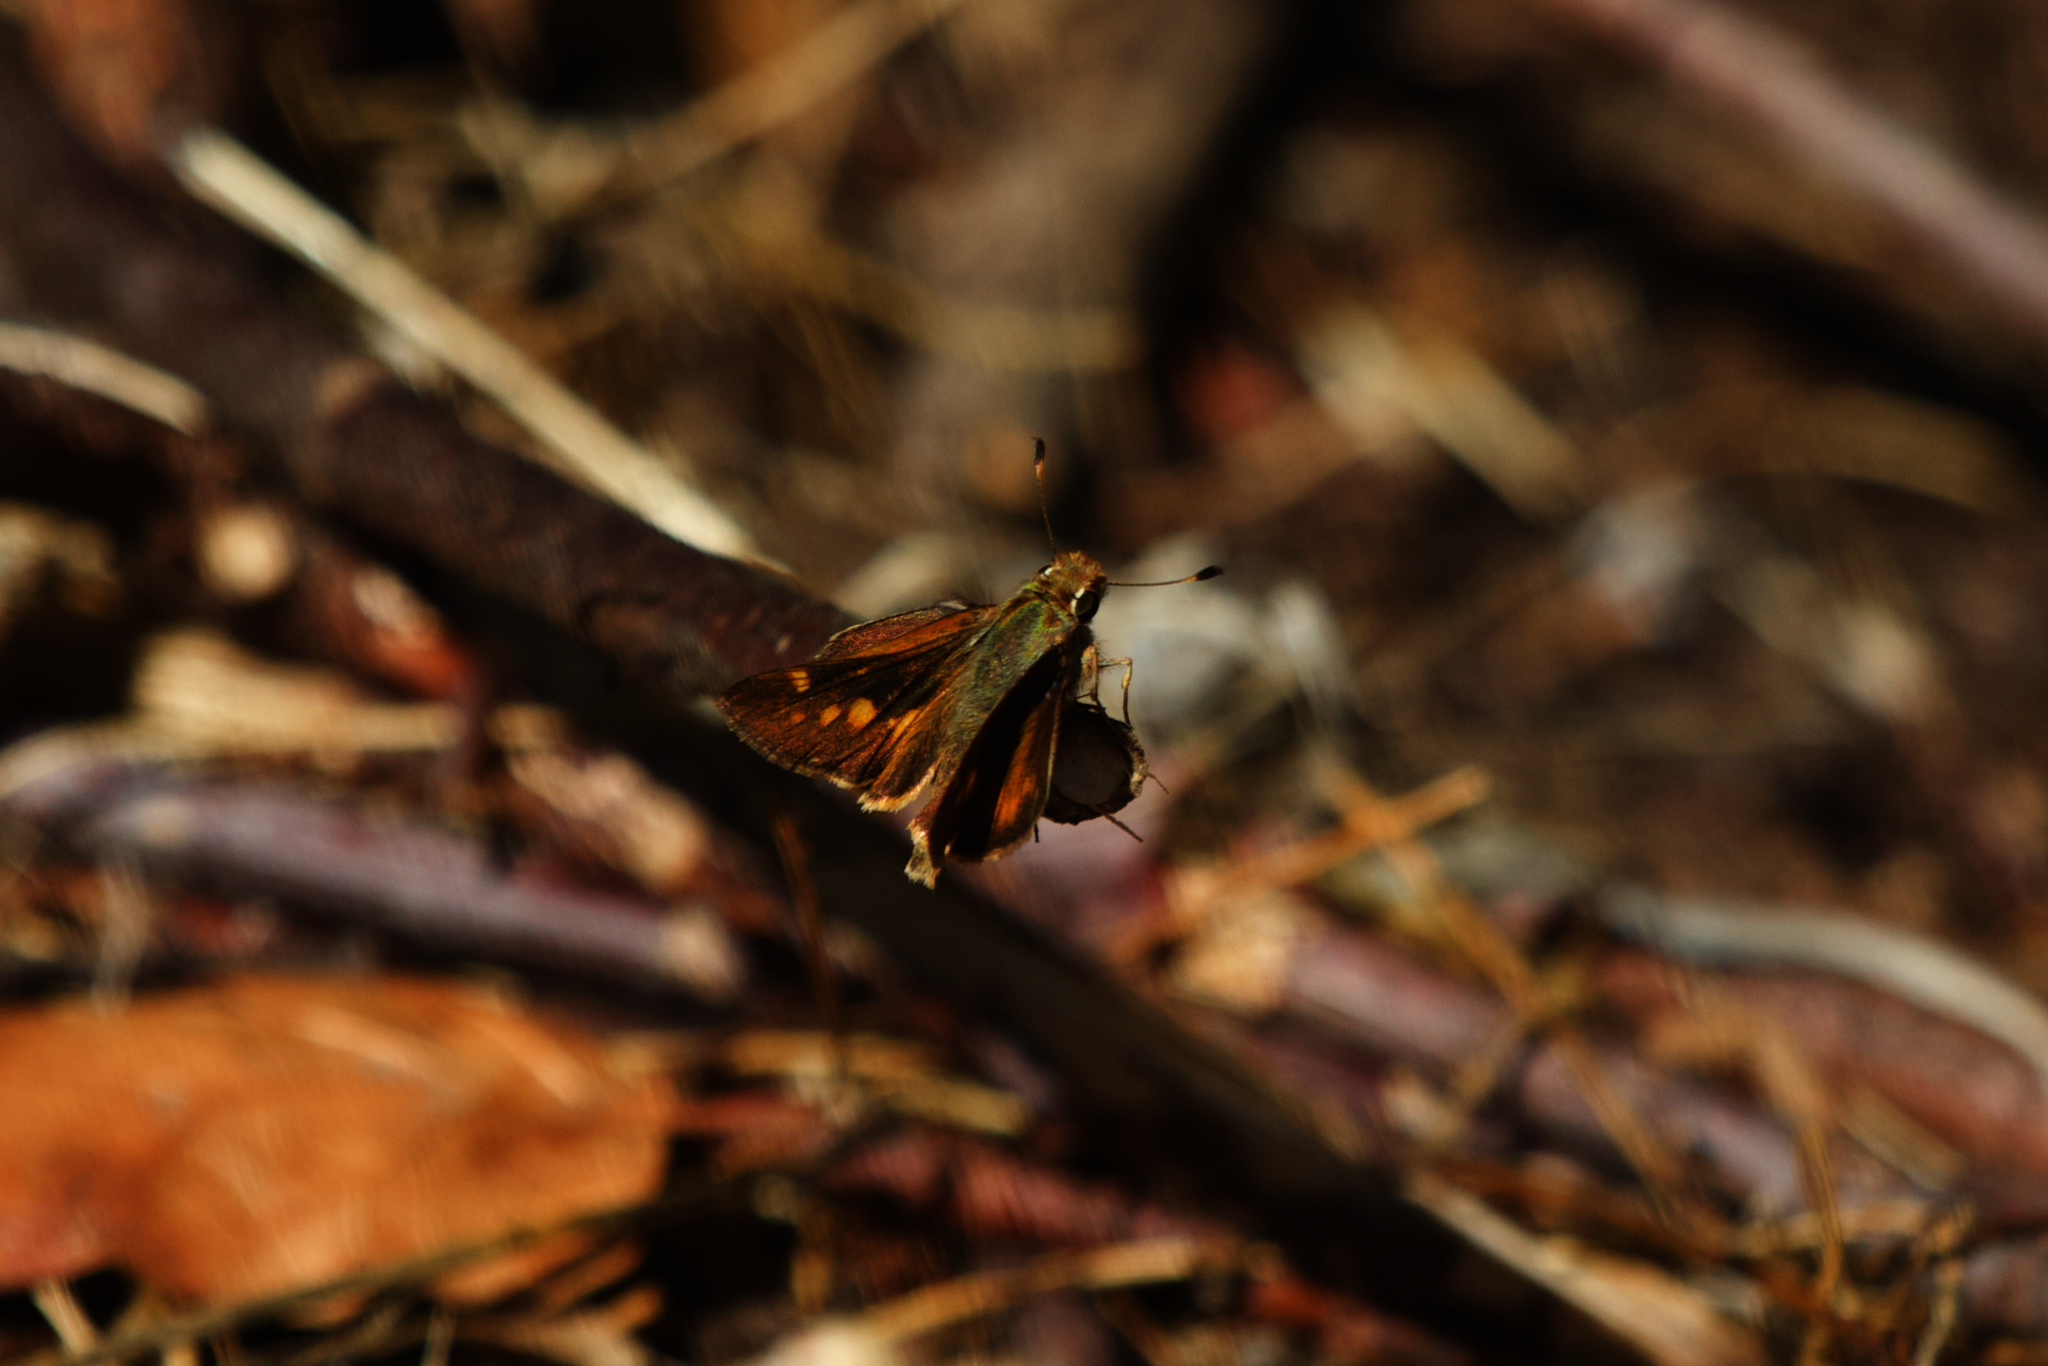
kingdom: Animalia
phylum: Arthropoda
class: Insecta
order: Lepidoptera
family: Hesperiidae
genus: Lon
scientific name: Lon melane
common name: Umber skipper
